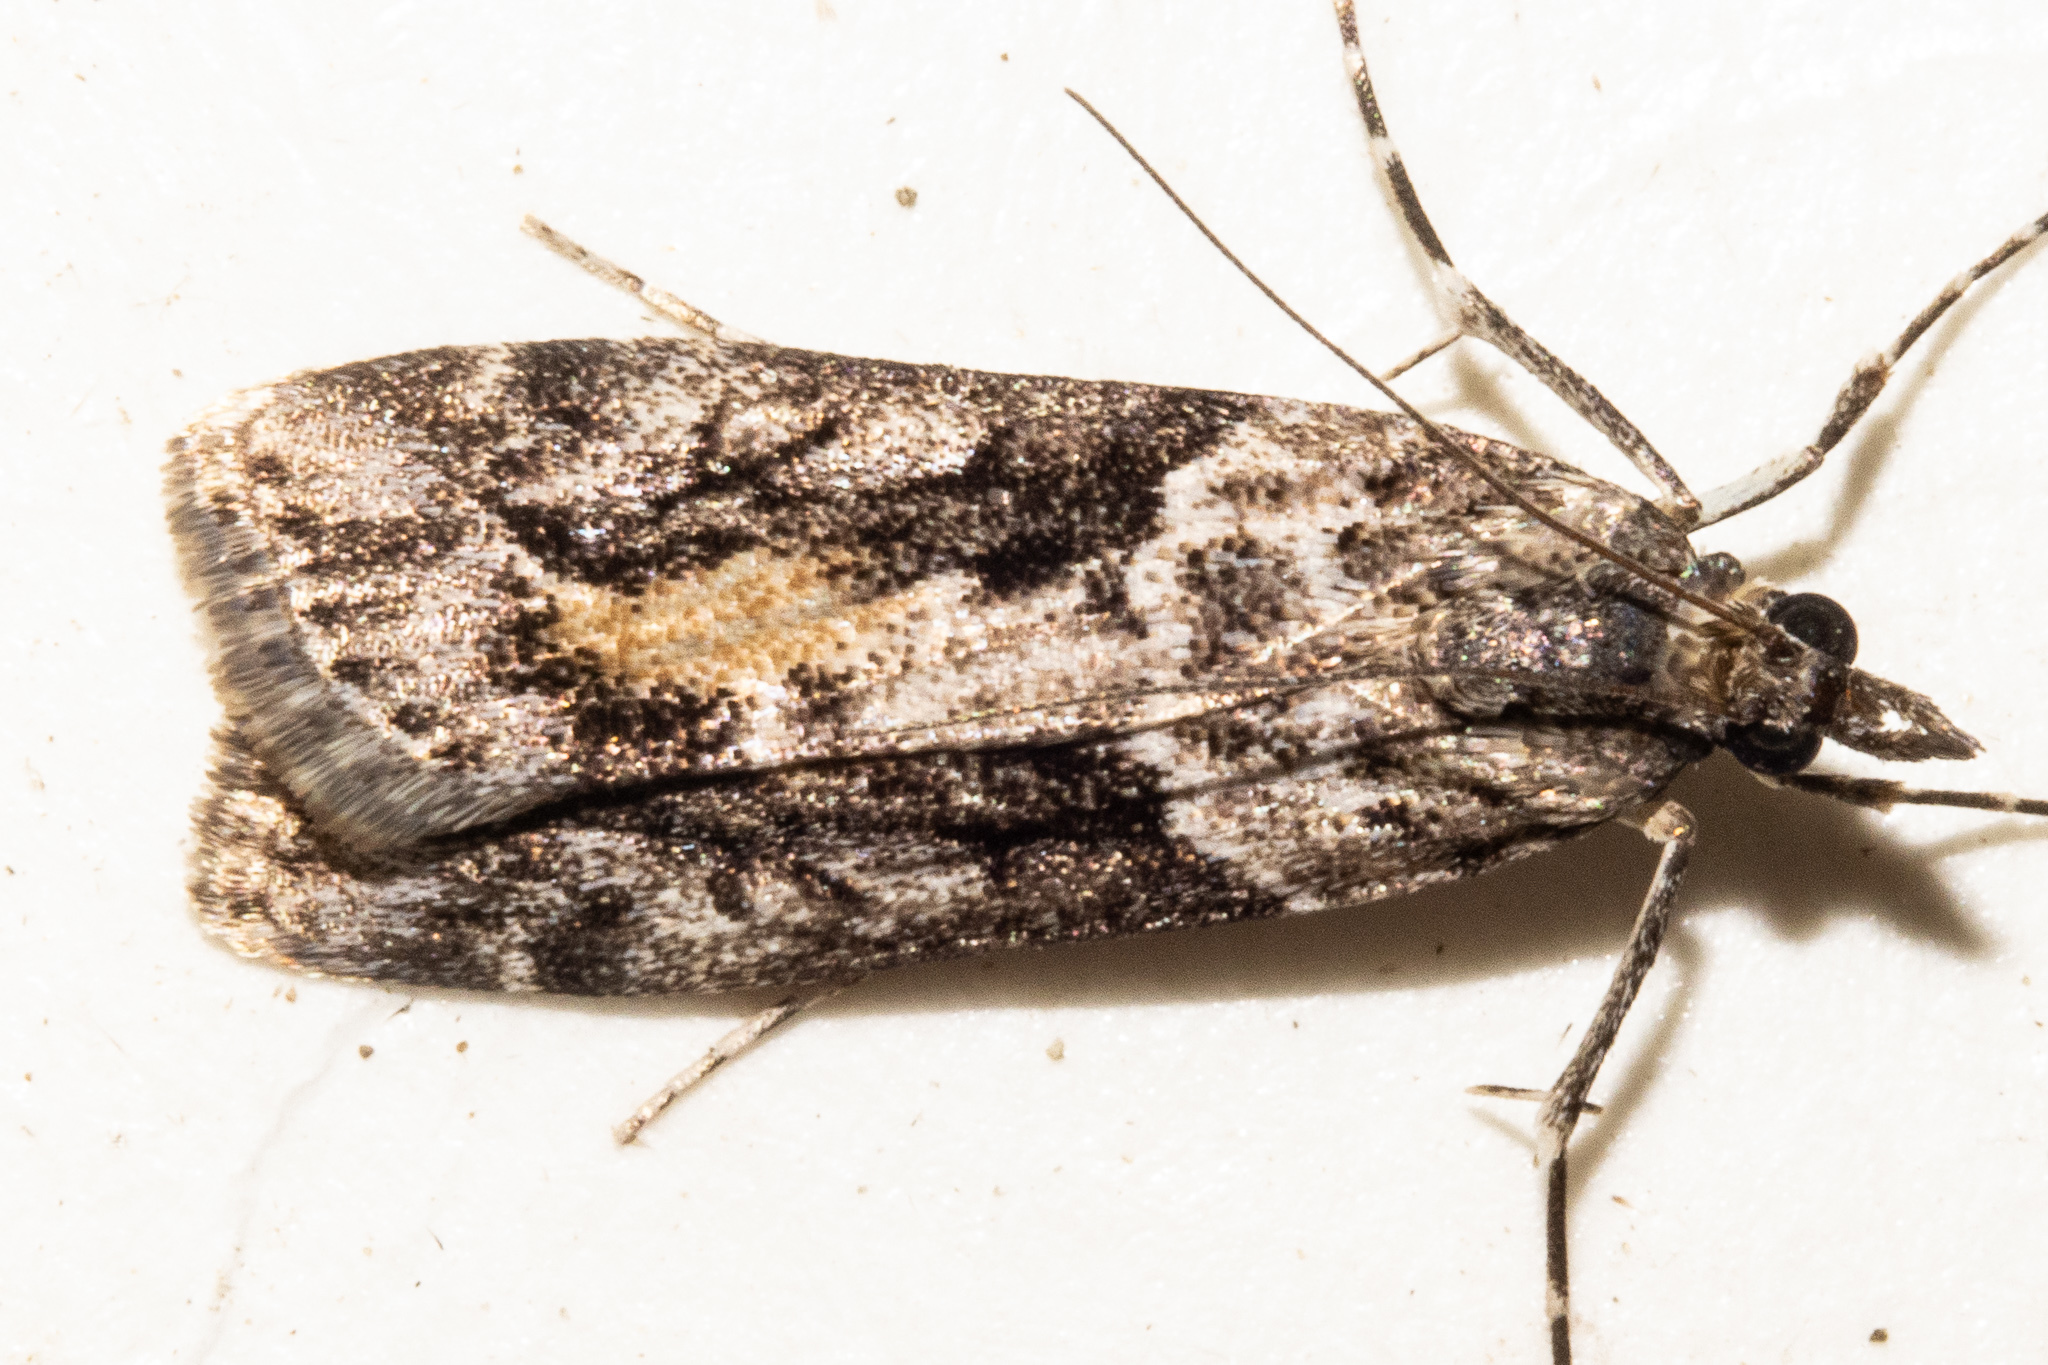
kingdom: Animalia
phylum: Arthropoda
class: Insecta
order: Lepidoptera
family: Crambidae
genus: Eudonia
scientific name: Eudonia submarginalis
